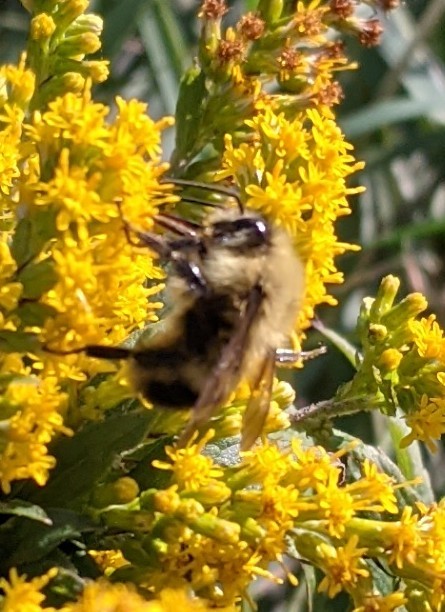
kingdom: Animalia
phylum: Arthropoda
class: Insecta
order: Hymenoptera
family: Apidae
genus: Pyrobombus
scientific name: Pyrobombus
